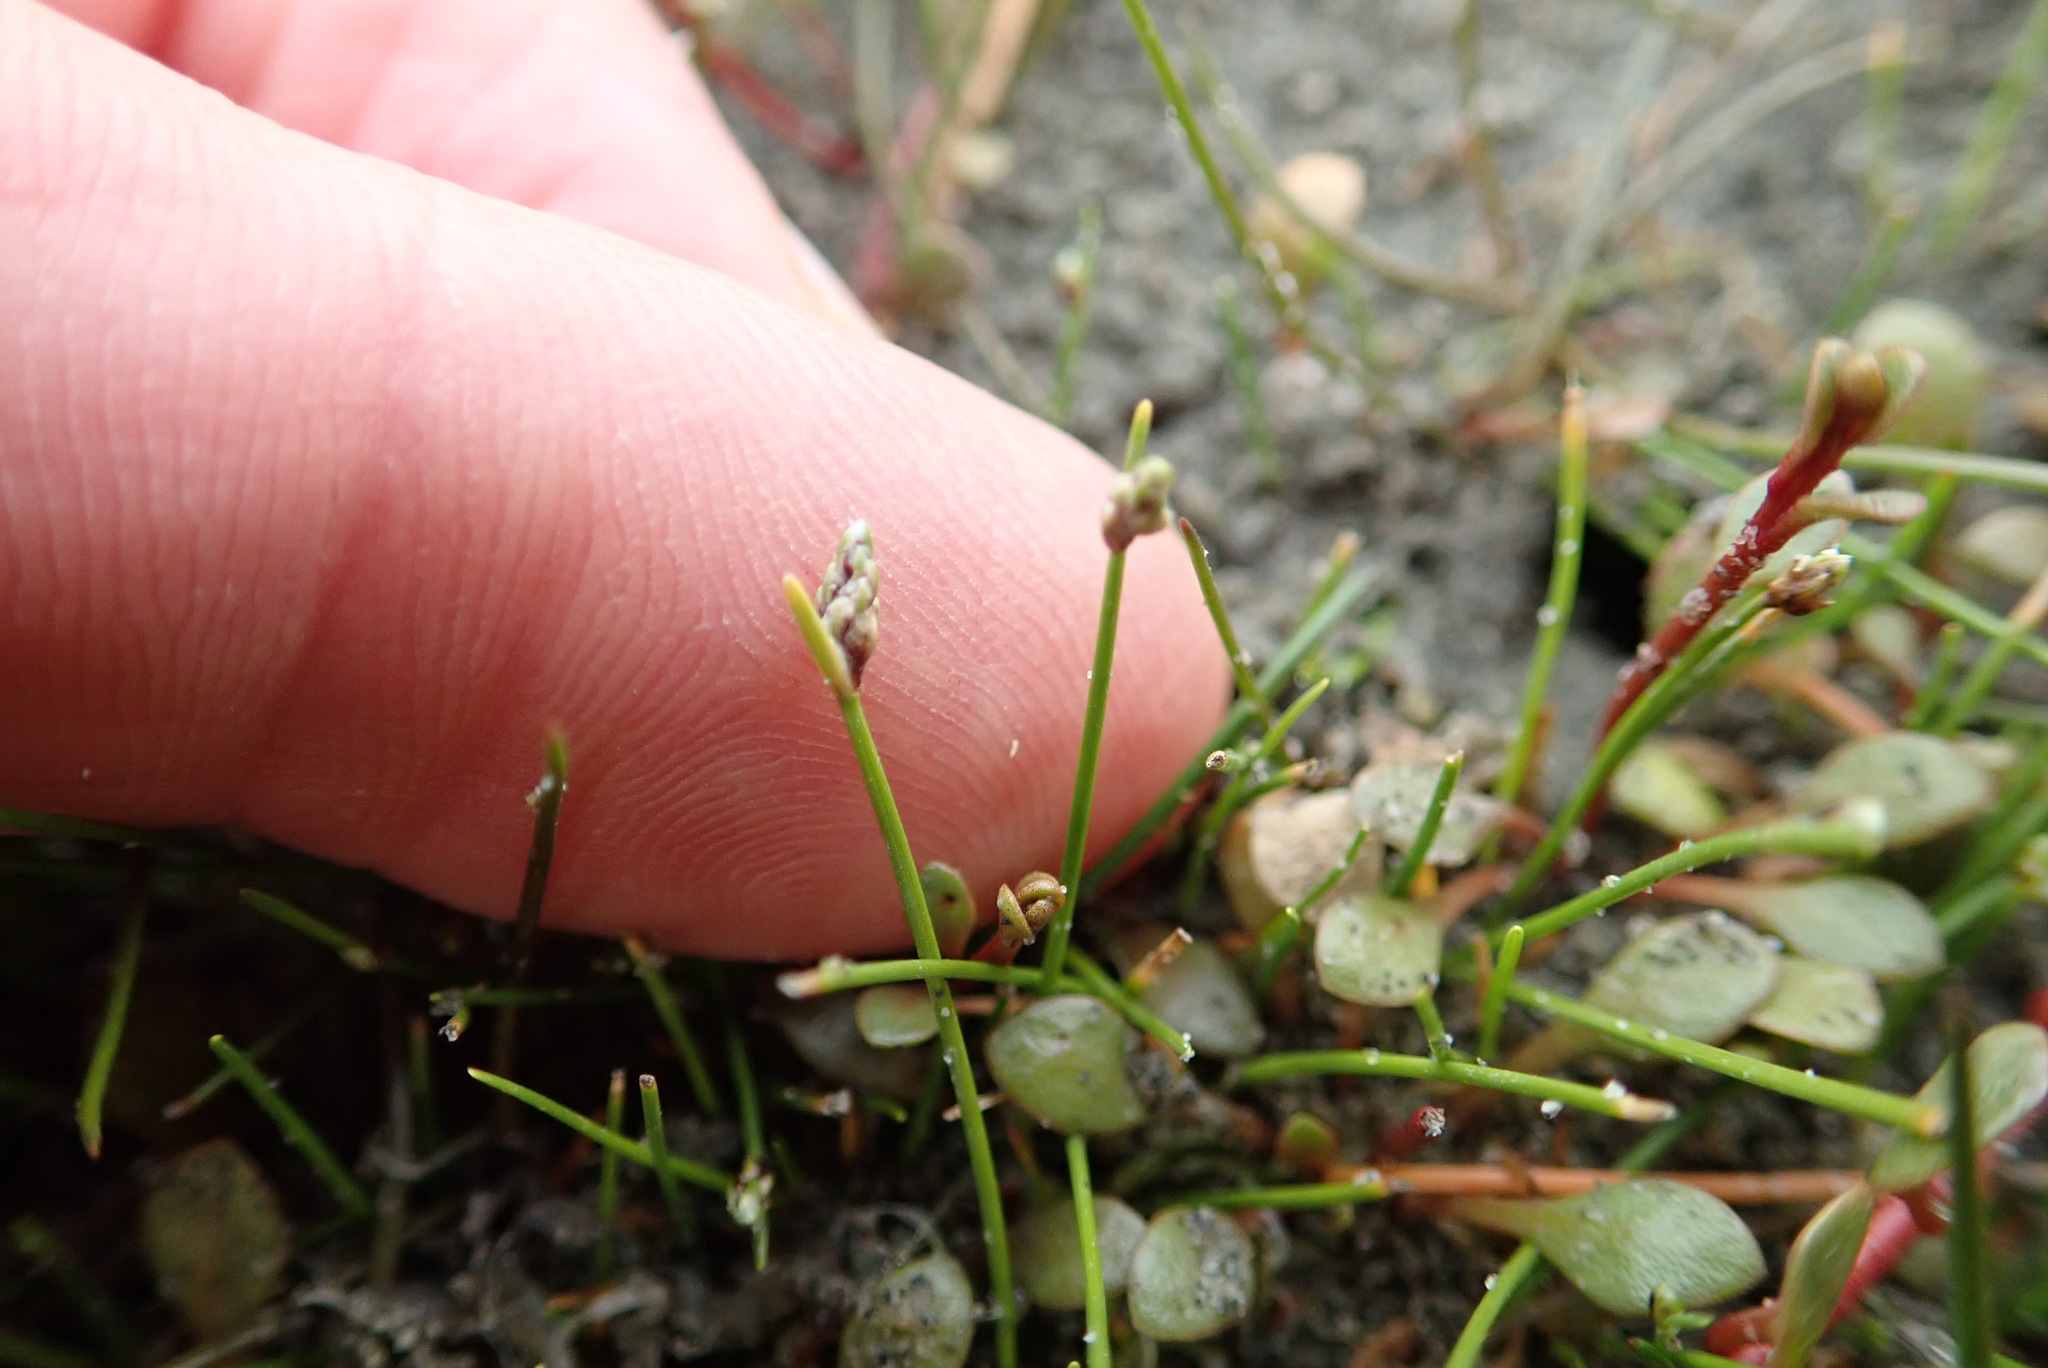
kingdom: Plantae
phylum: Tracheophyta
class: Liliopsida
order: Poales
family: Cyperaceae
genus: Isolepis
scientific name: Isolepis cernua
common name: Slender club-rush
